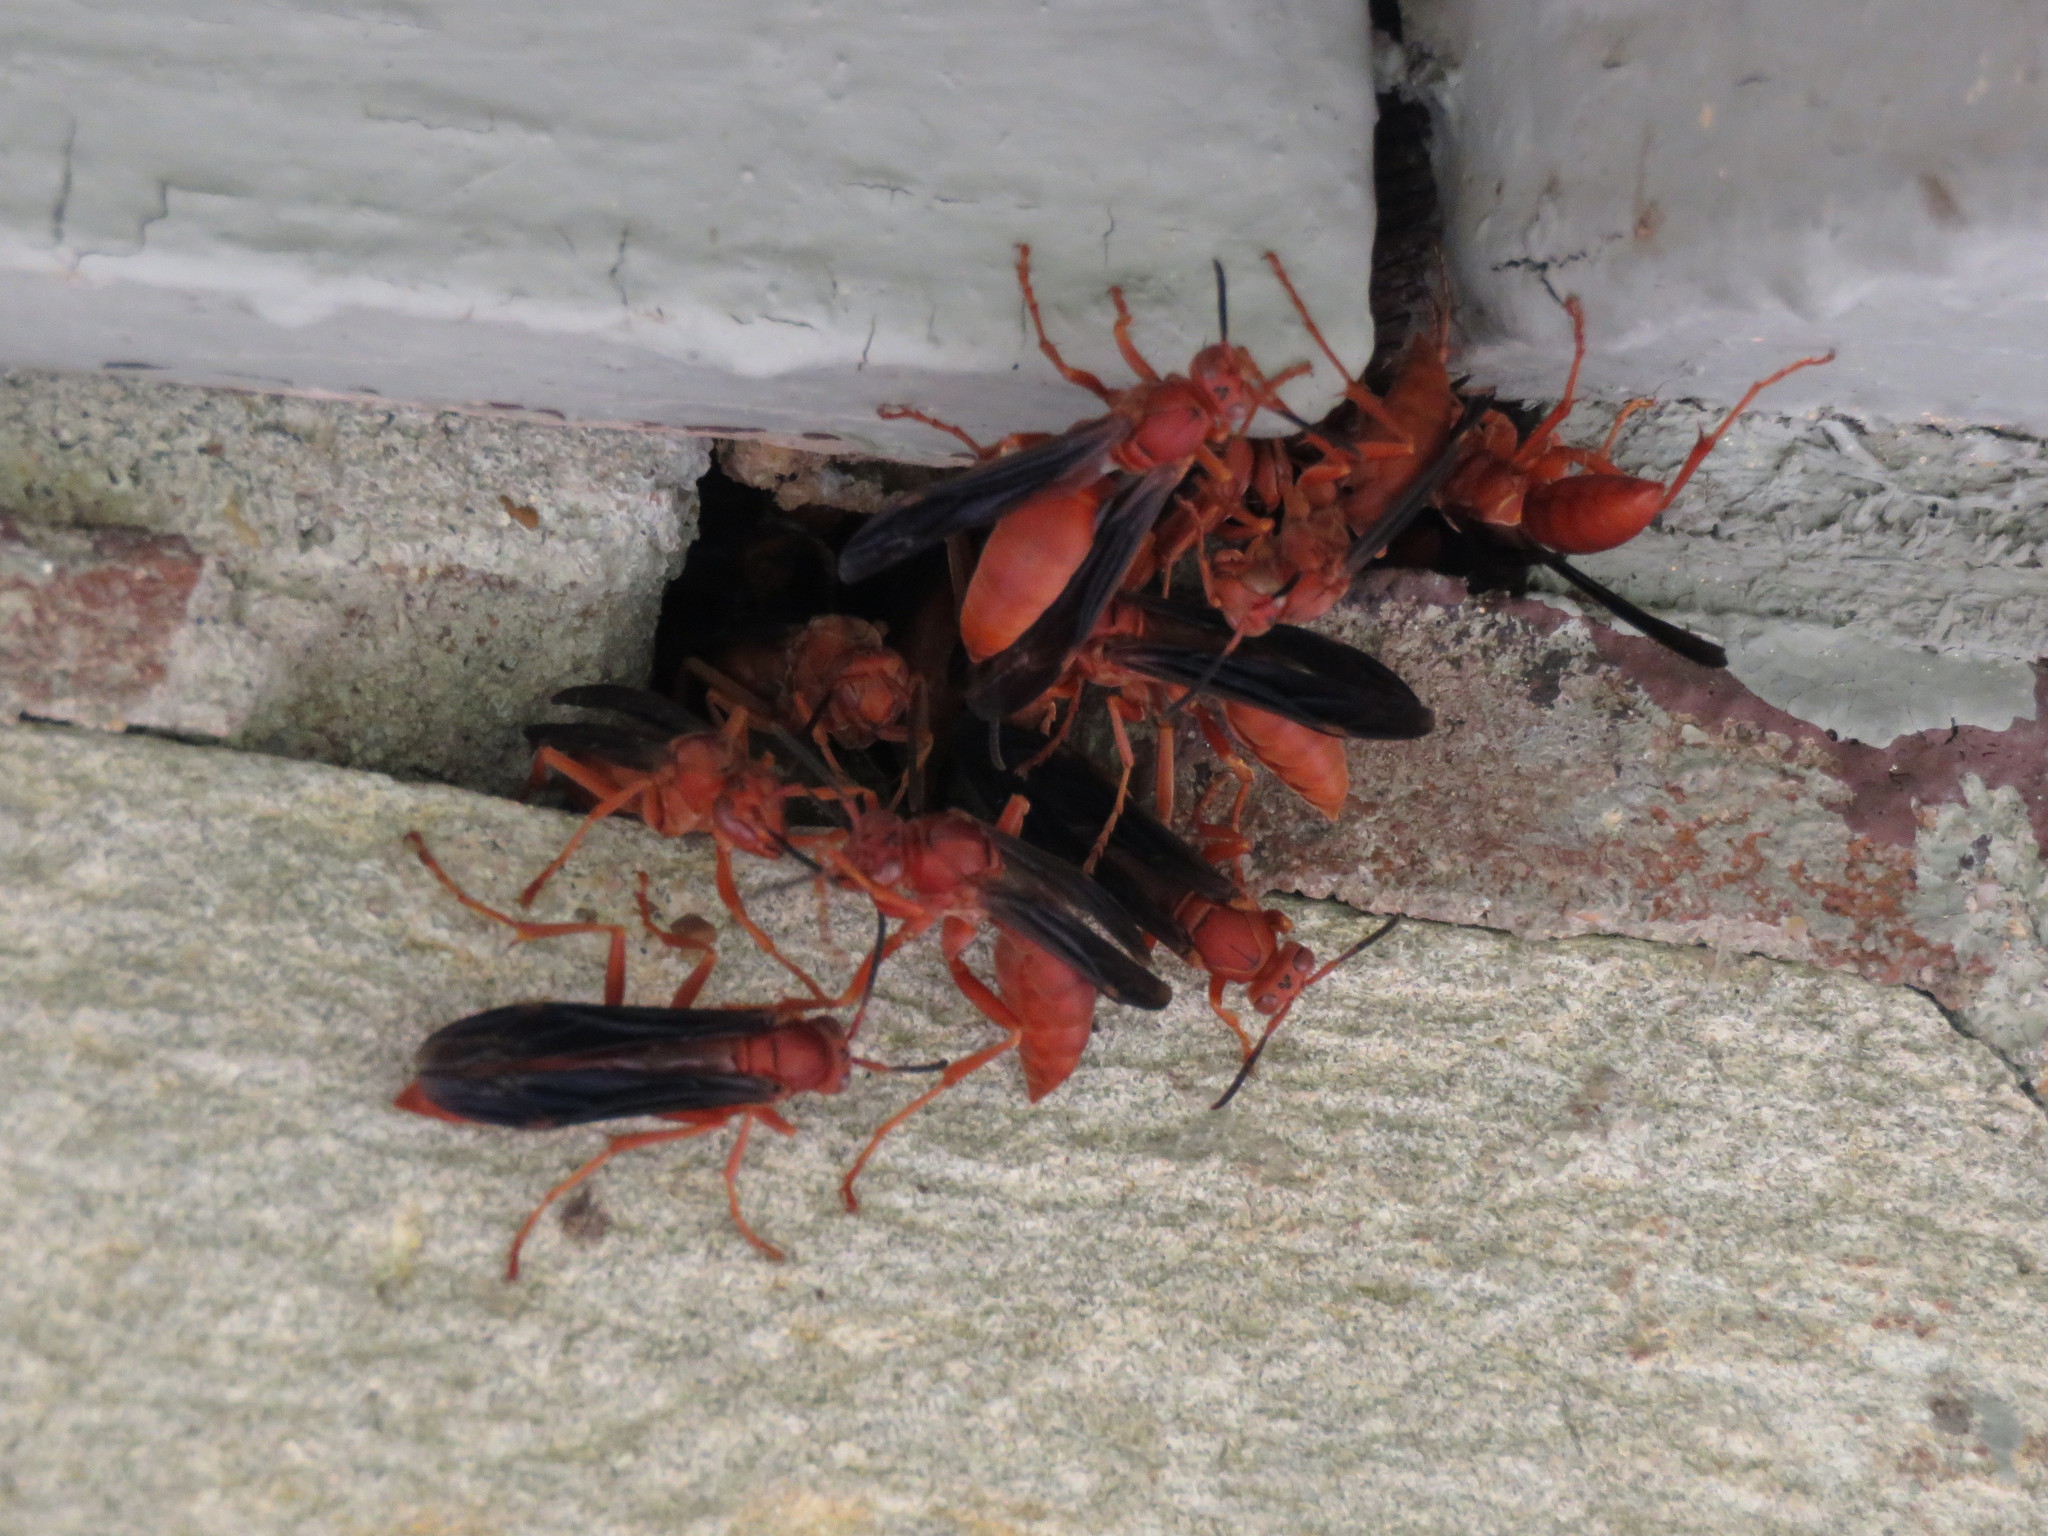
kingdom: Animalia
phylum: Arthropoda
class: Insecta
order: Hymenoptera
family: Eumenidae
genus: Polistes
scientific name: Polistes carolina
